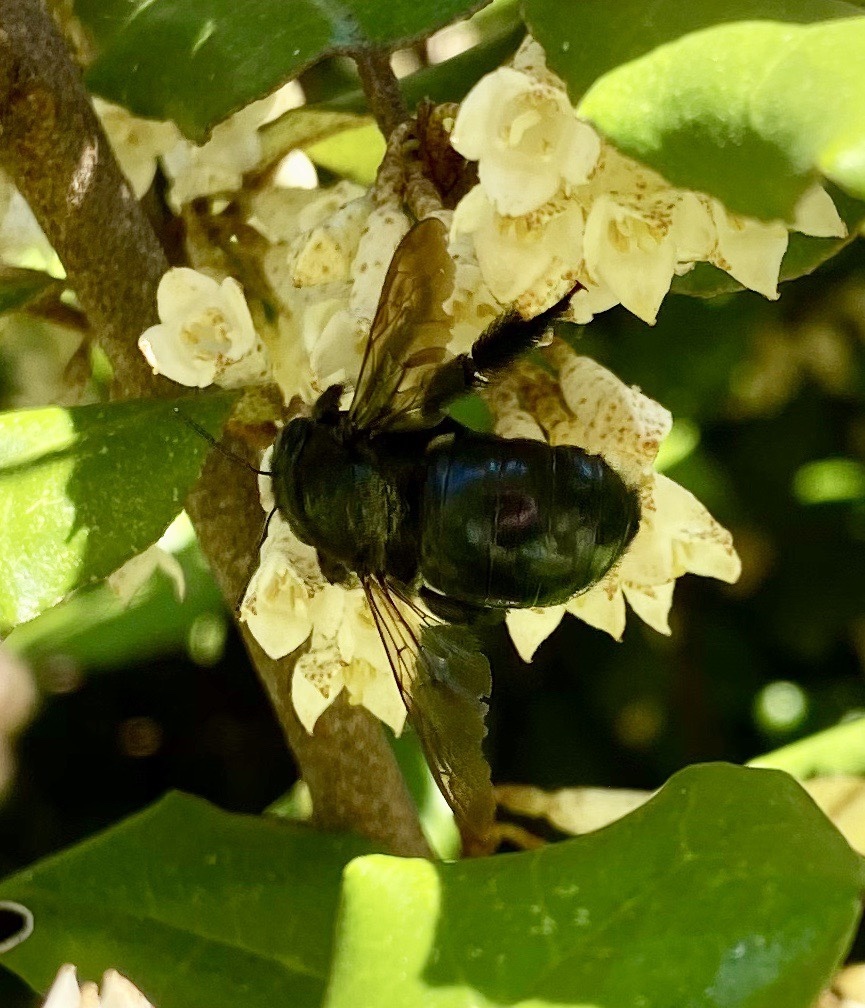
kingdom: Animalia
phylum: Arthropoda
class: Insecta
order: Hymenoptera
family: Apidae
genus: Xylocopa
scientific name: Xylocopa micans
